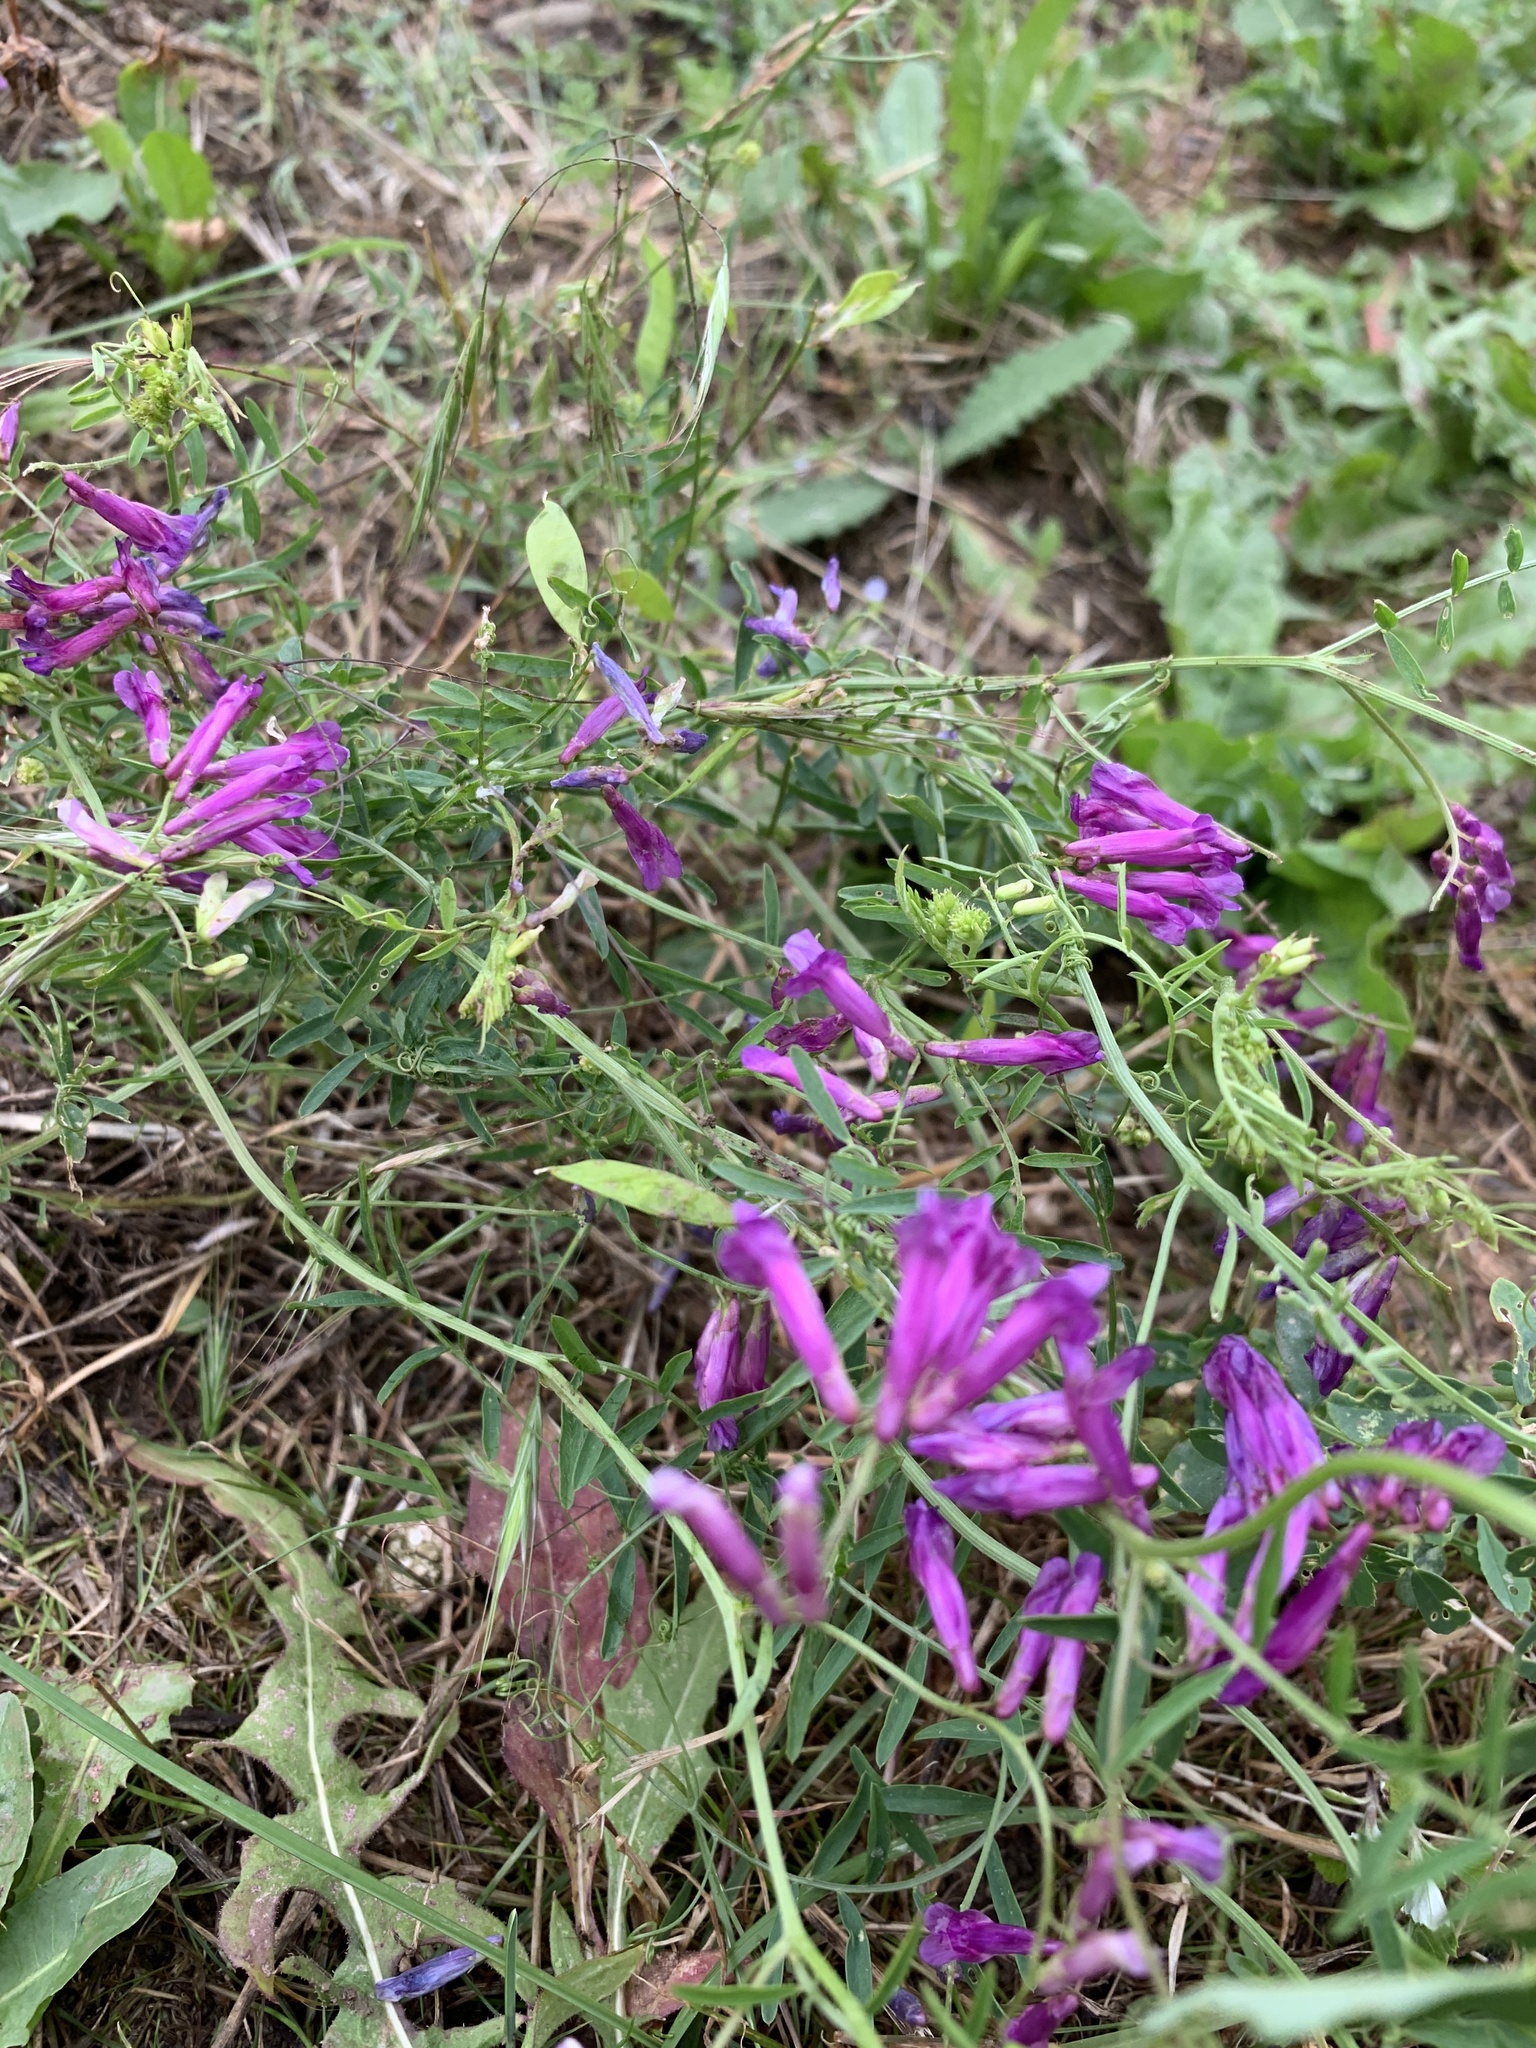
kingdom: Plantae
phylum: Tracheophyta
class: Magnoliopsida
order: Fabales
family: Fabaceae
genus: Vicia
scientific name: Vicia villosa
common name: Fodder vetch
